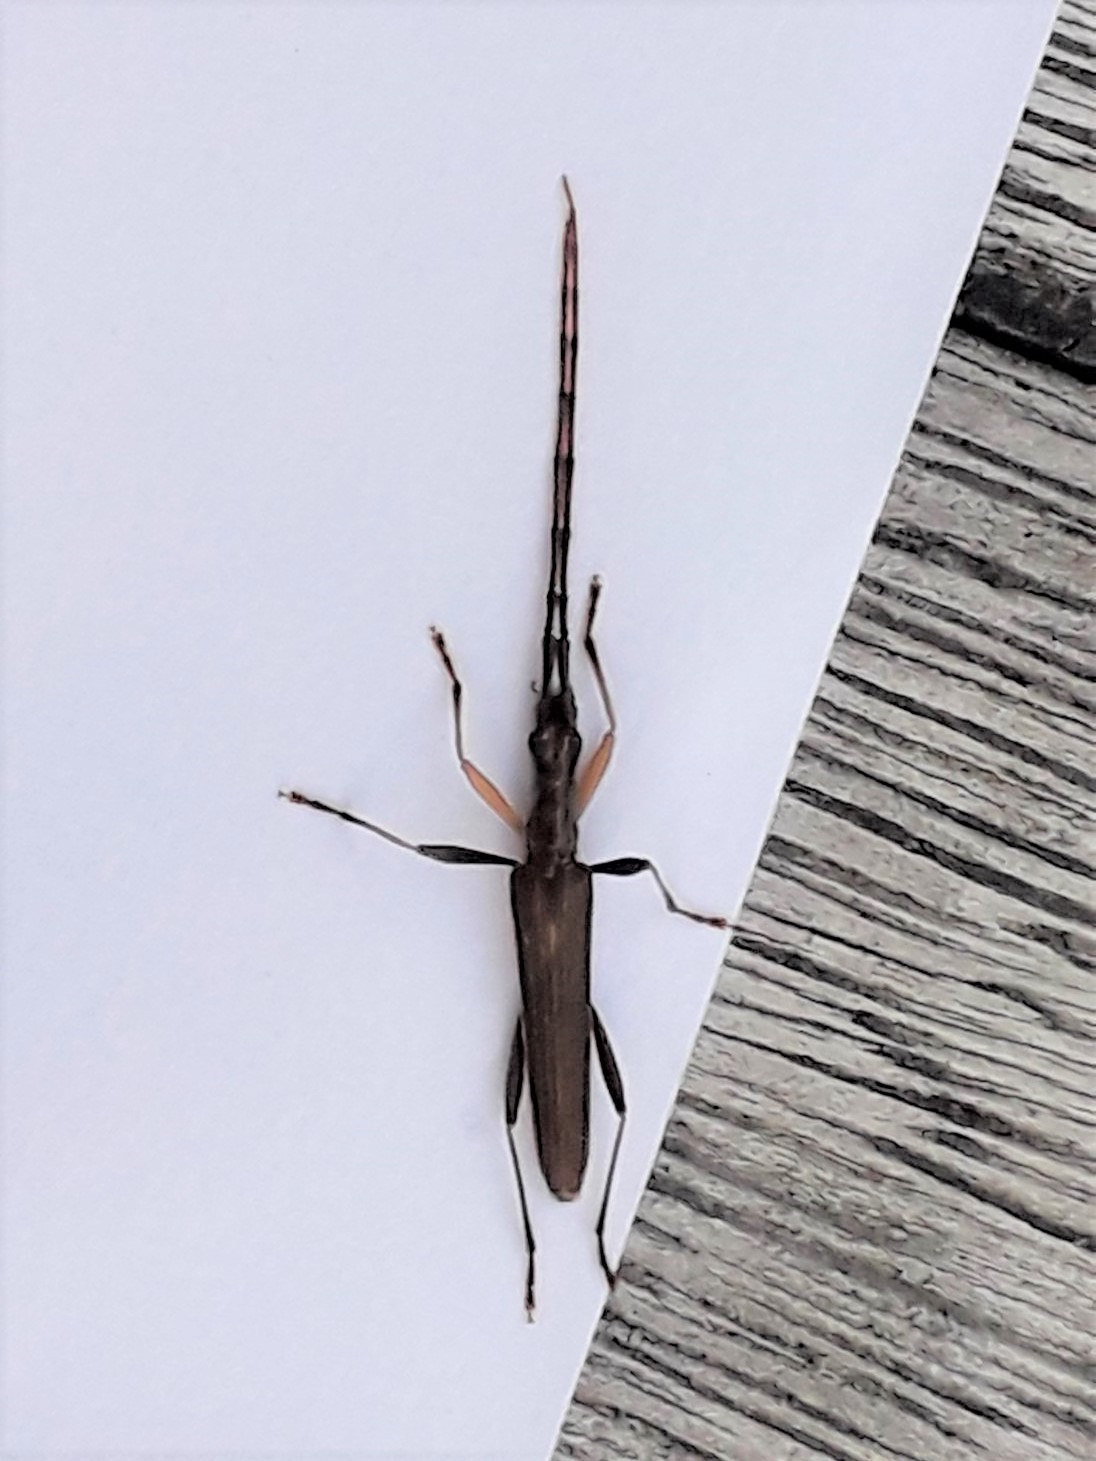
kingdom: Animalia
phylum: Arthropoda
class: Insecta
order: Coleoptera
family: Cerambycidae
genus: Stenopotes
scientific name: Stenopotes pallidus
